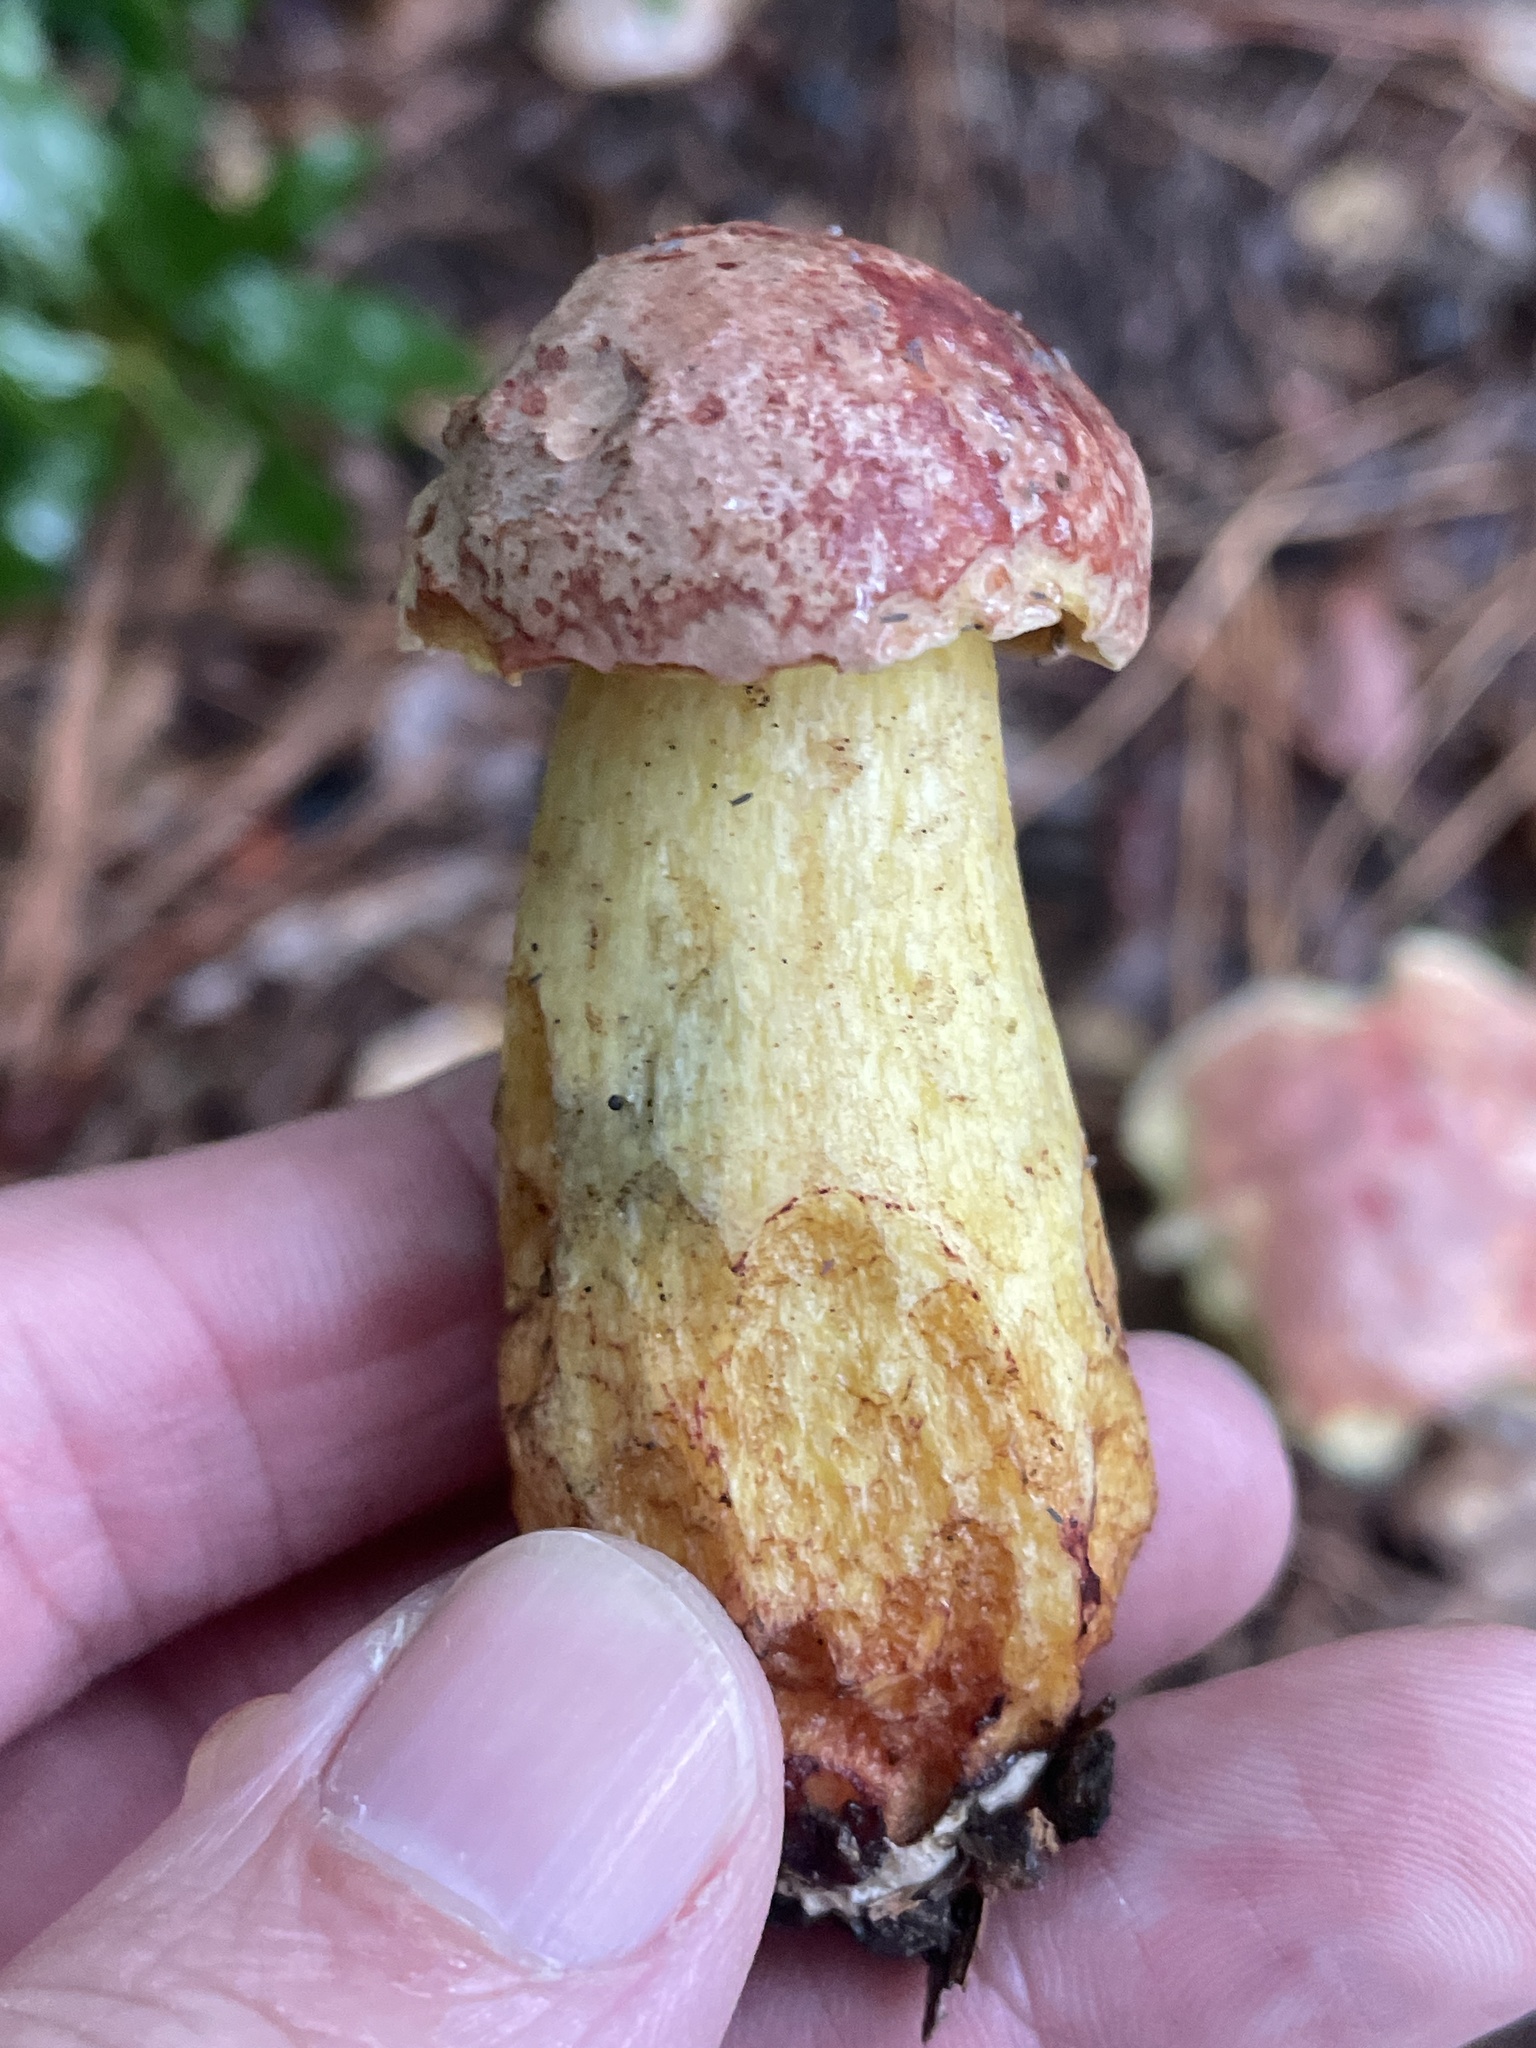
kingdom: Fungi
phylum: Basidiomycota
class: Agaricomycetes
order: Boletales
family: Boletaceae
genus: Pulchroboletus
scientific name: Pulchroboletus rubricitrinus
